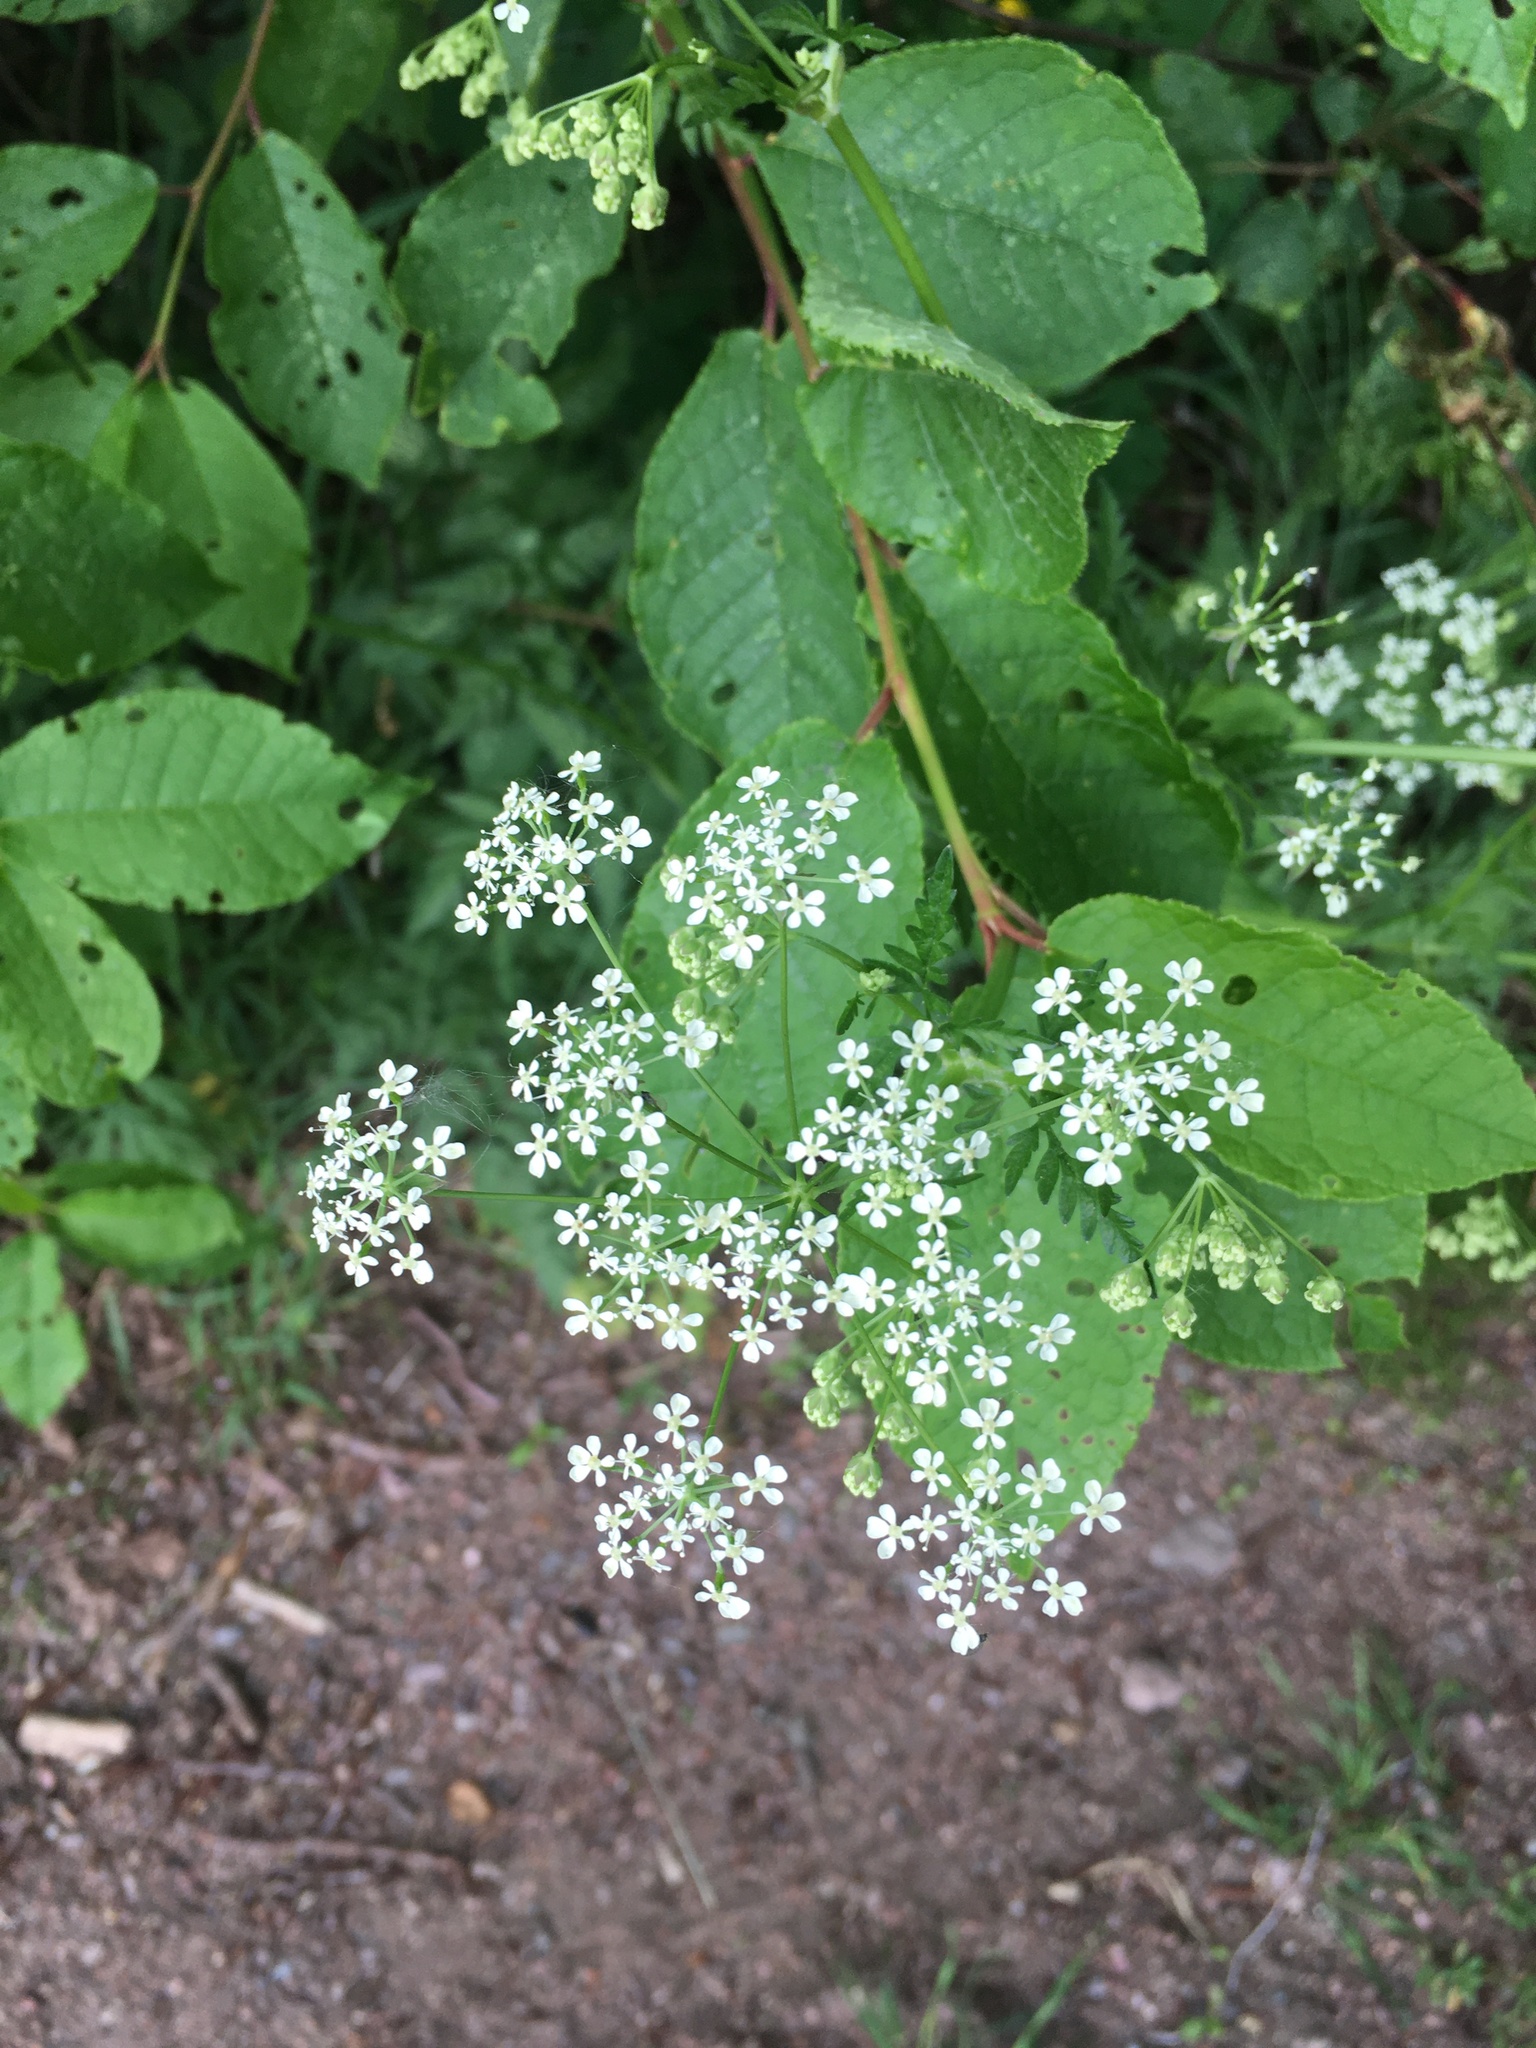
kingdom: Plantae
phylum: Tracheophyta
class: Magnoliopsida
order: Apiales
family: Apiaceae
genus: Anthriscus
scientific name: Anthriscus sylvestris
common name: Cow parsley
